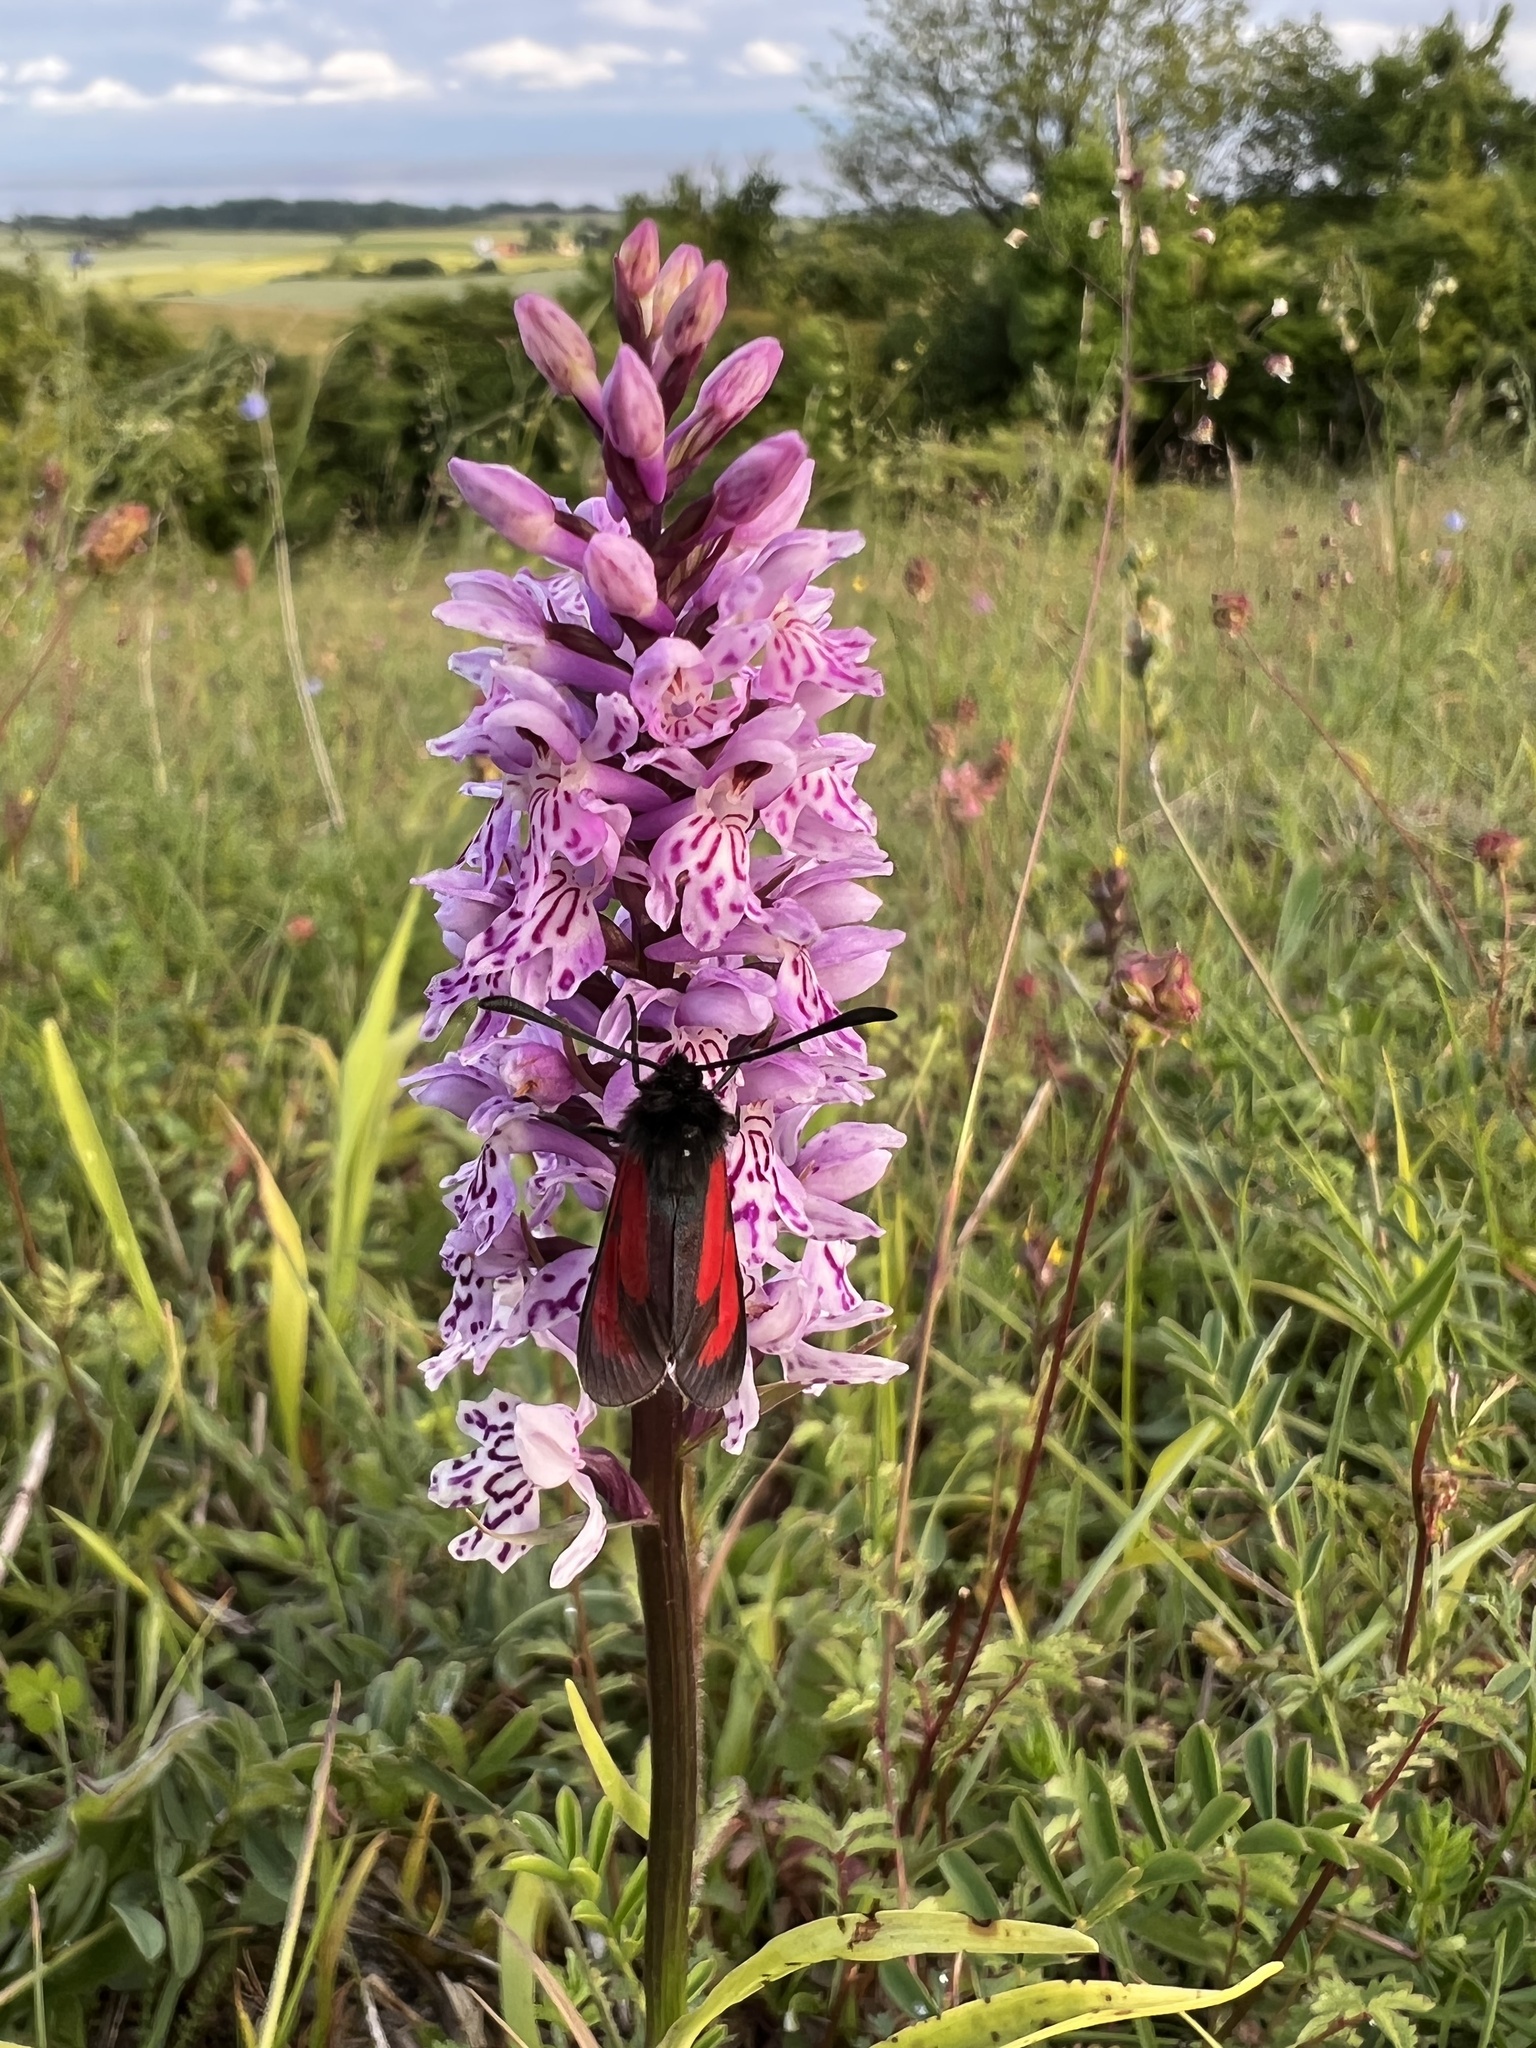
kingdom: Animalia
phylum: Arthropoda
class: Insecta
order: Lepidoptera
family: Zygaenidae
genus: Zygaena
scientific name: Zygaena purpuralis
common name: Transparent burnet
